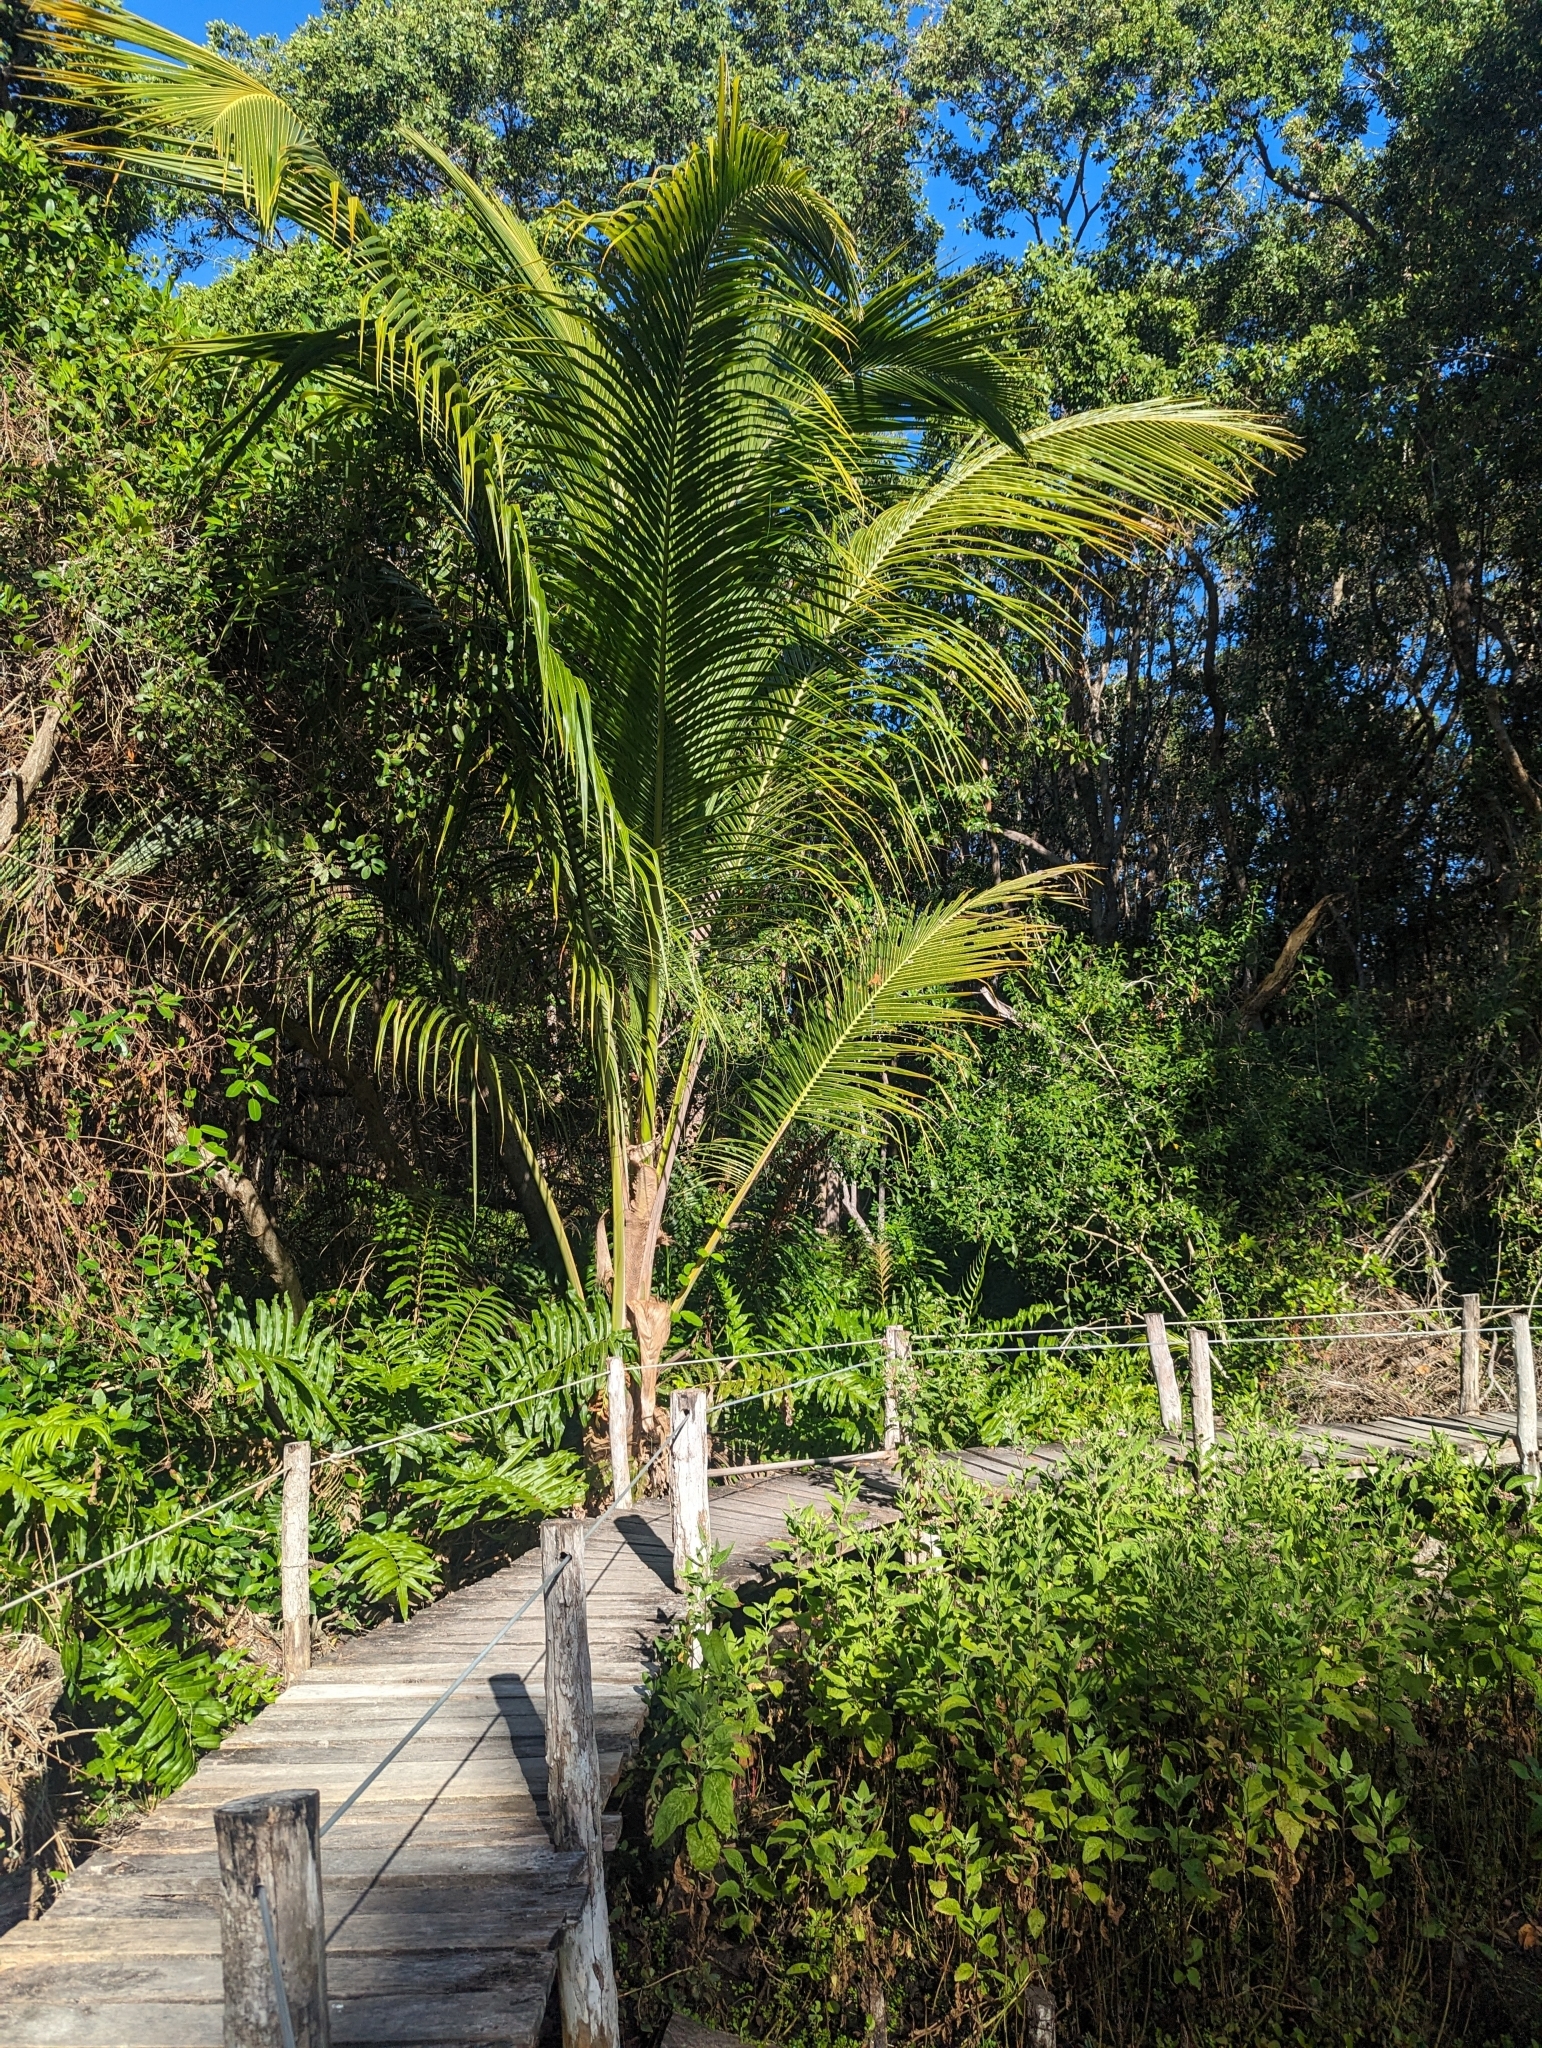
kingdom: Plantae
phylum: Tracheophyta
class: Liliopsida
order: Arecales
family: Arecaceae
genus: Cocos
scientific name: Cocos nucifera
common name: Coconut palm
